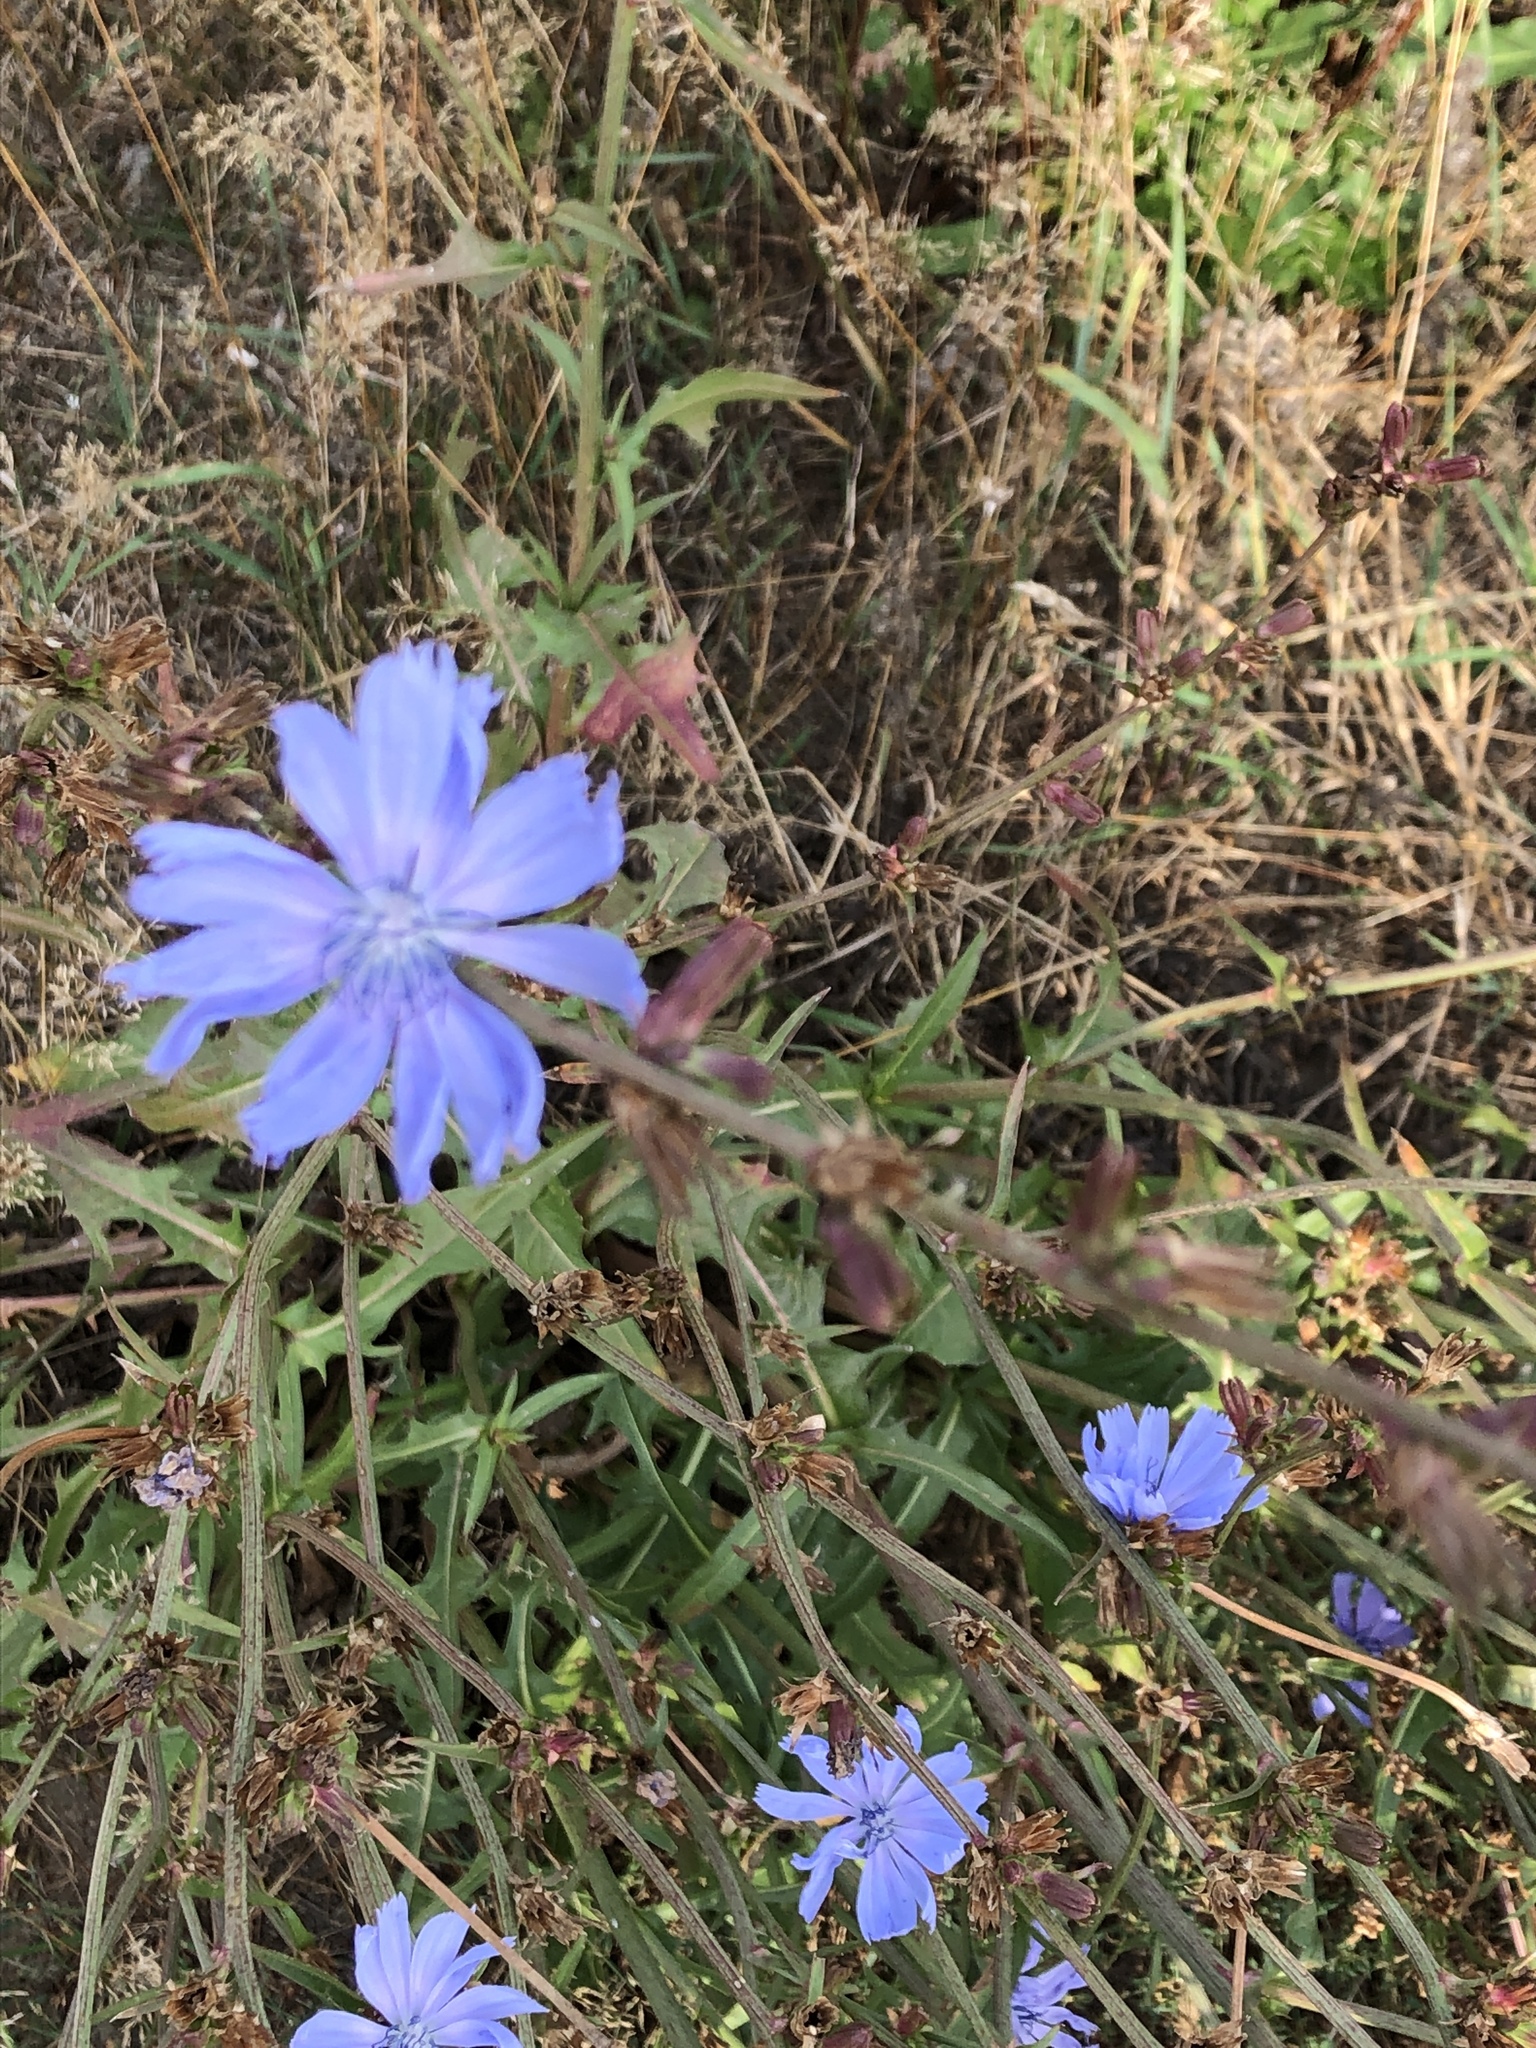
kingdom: Plantae
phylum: Tracheophyta
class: Magnoliopsida
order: Asterales
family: Asteraceae
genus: Cichorium
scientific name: Cichorium intybus
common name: Chicory
